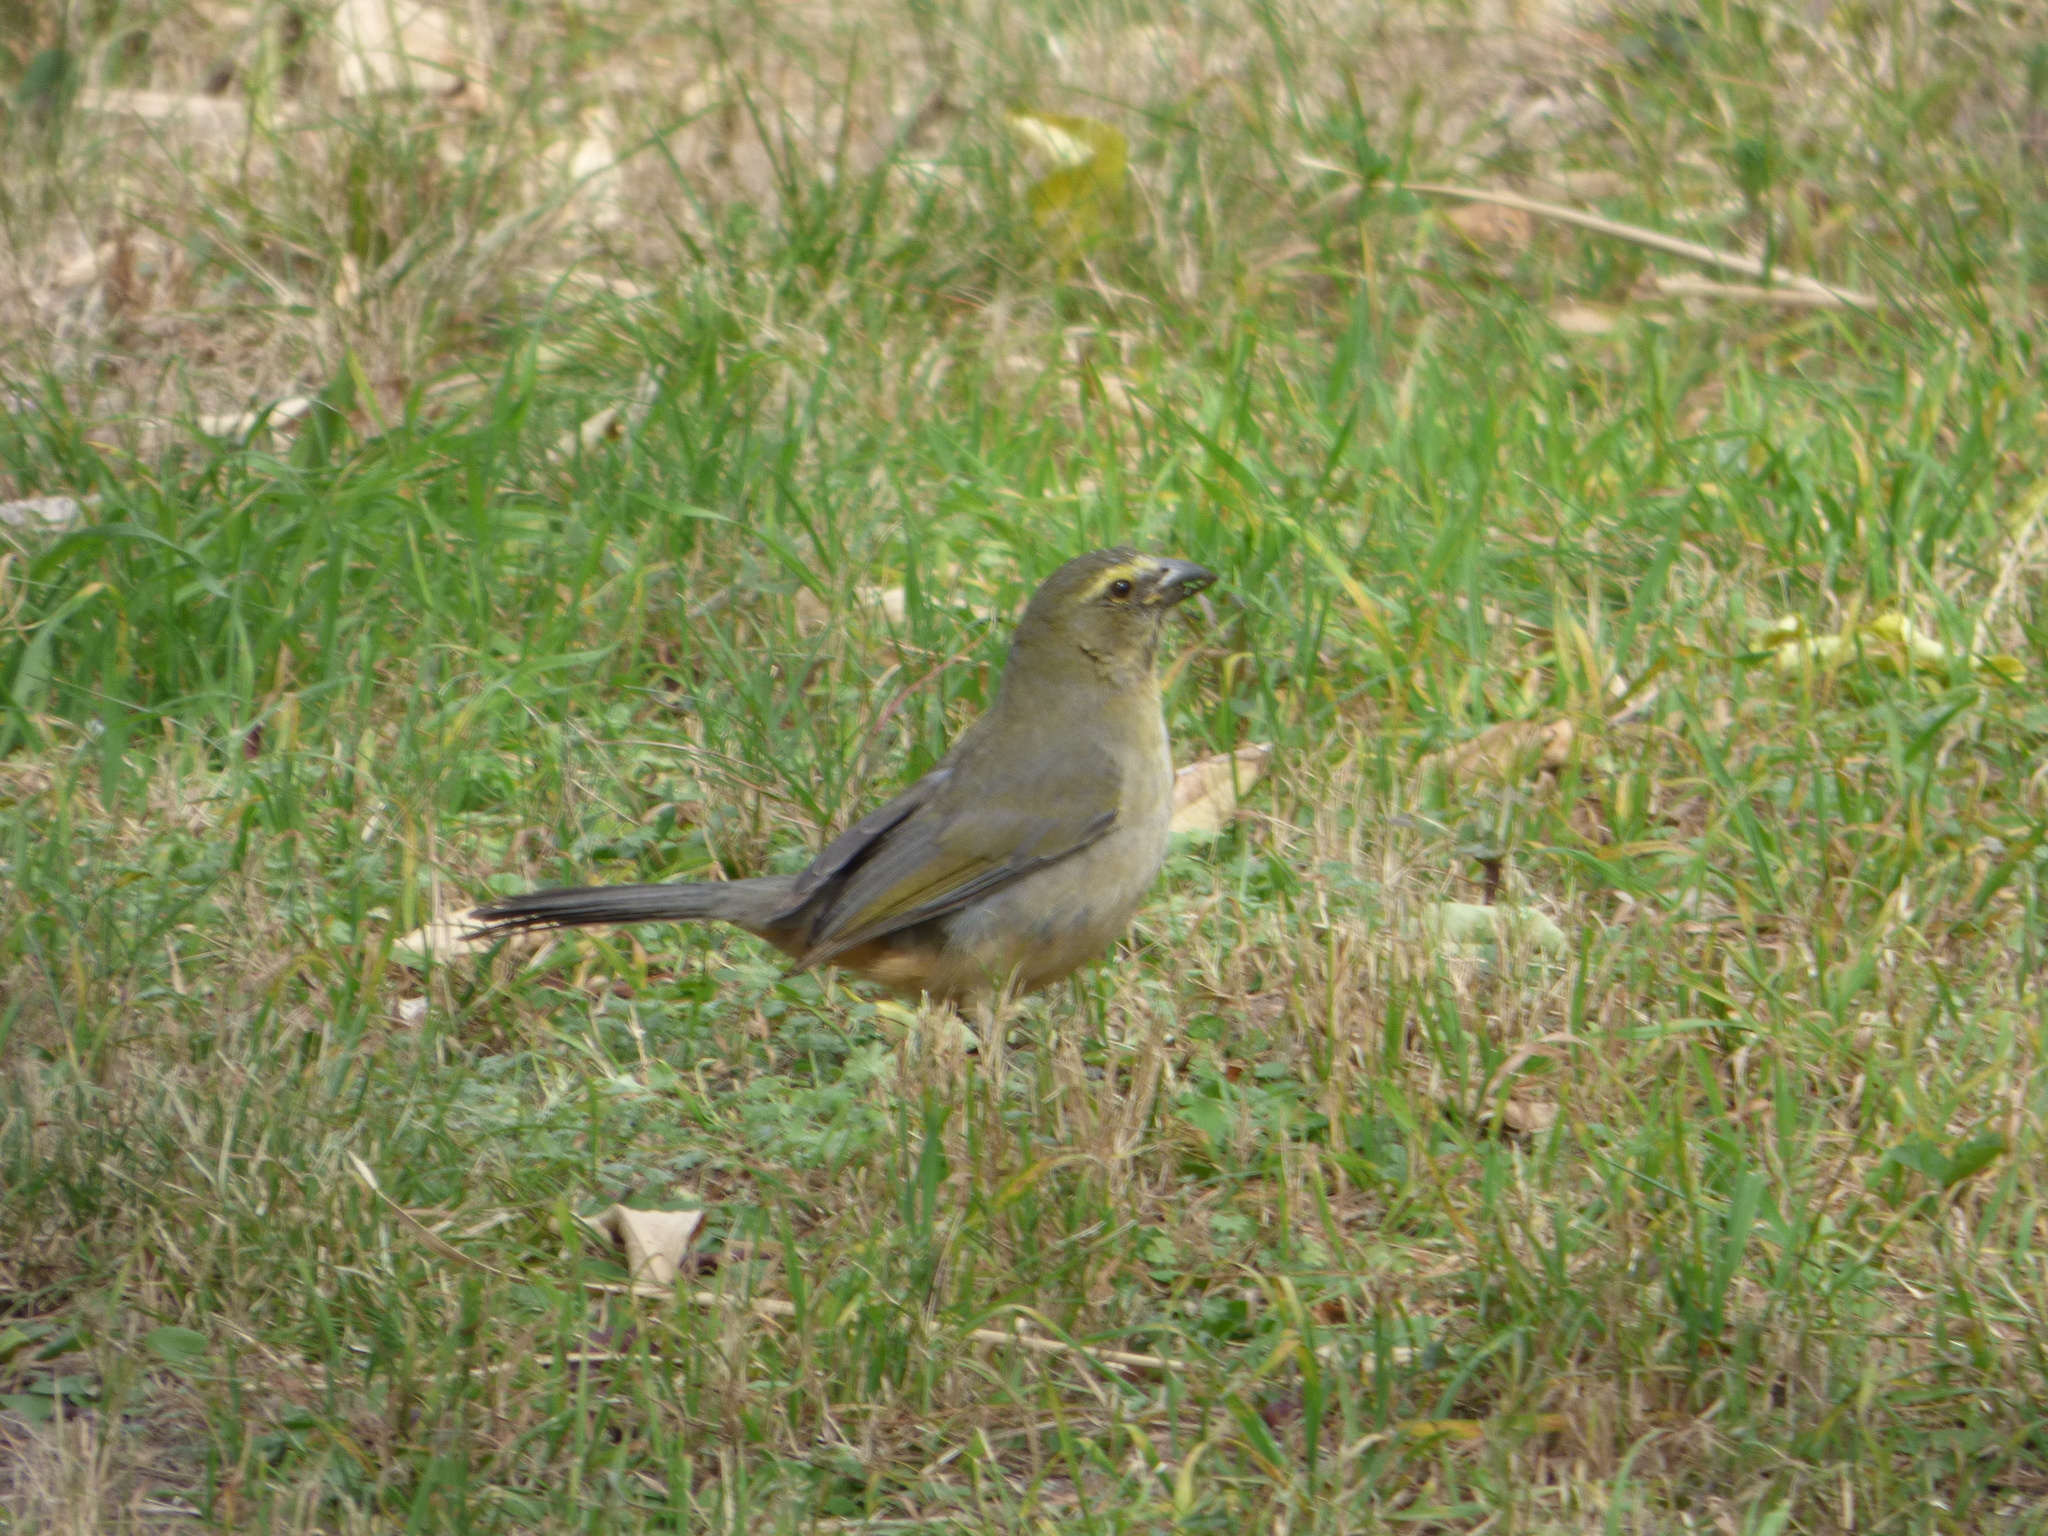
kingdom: Animalia
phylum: Chordata
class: Aves
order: Passeriformes
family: Thraupidae
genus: Saltator
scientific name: Saltator coerulescens
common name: Grayish saltator
